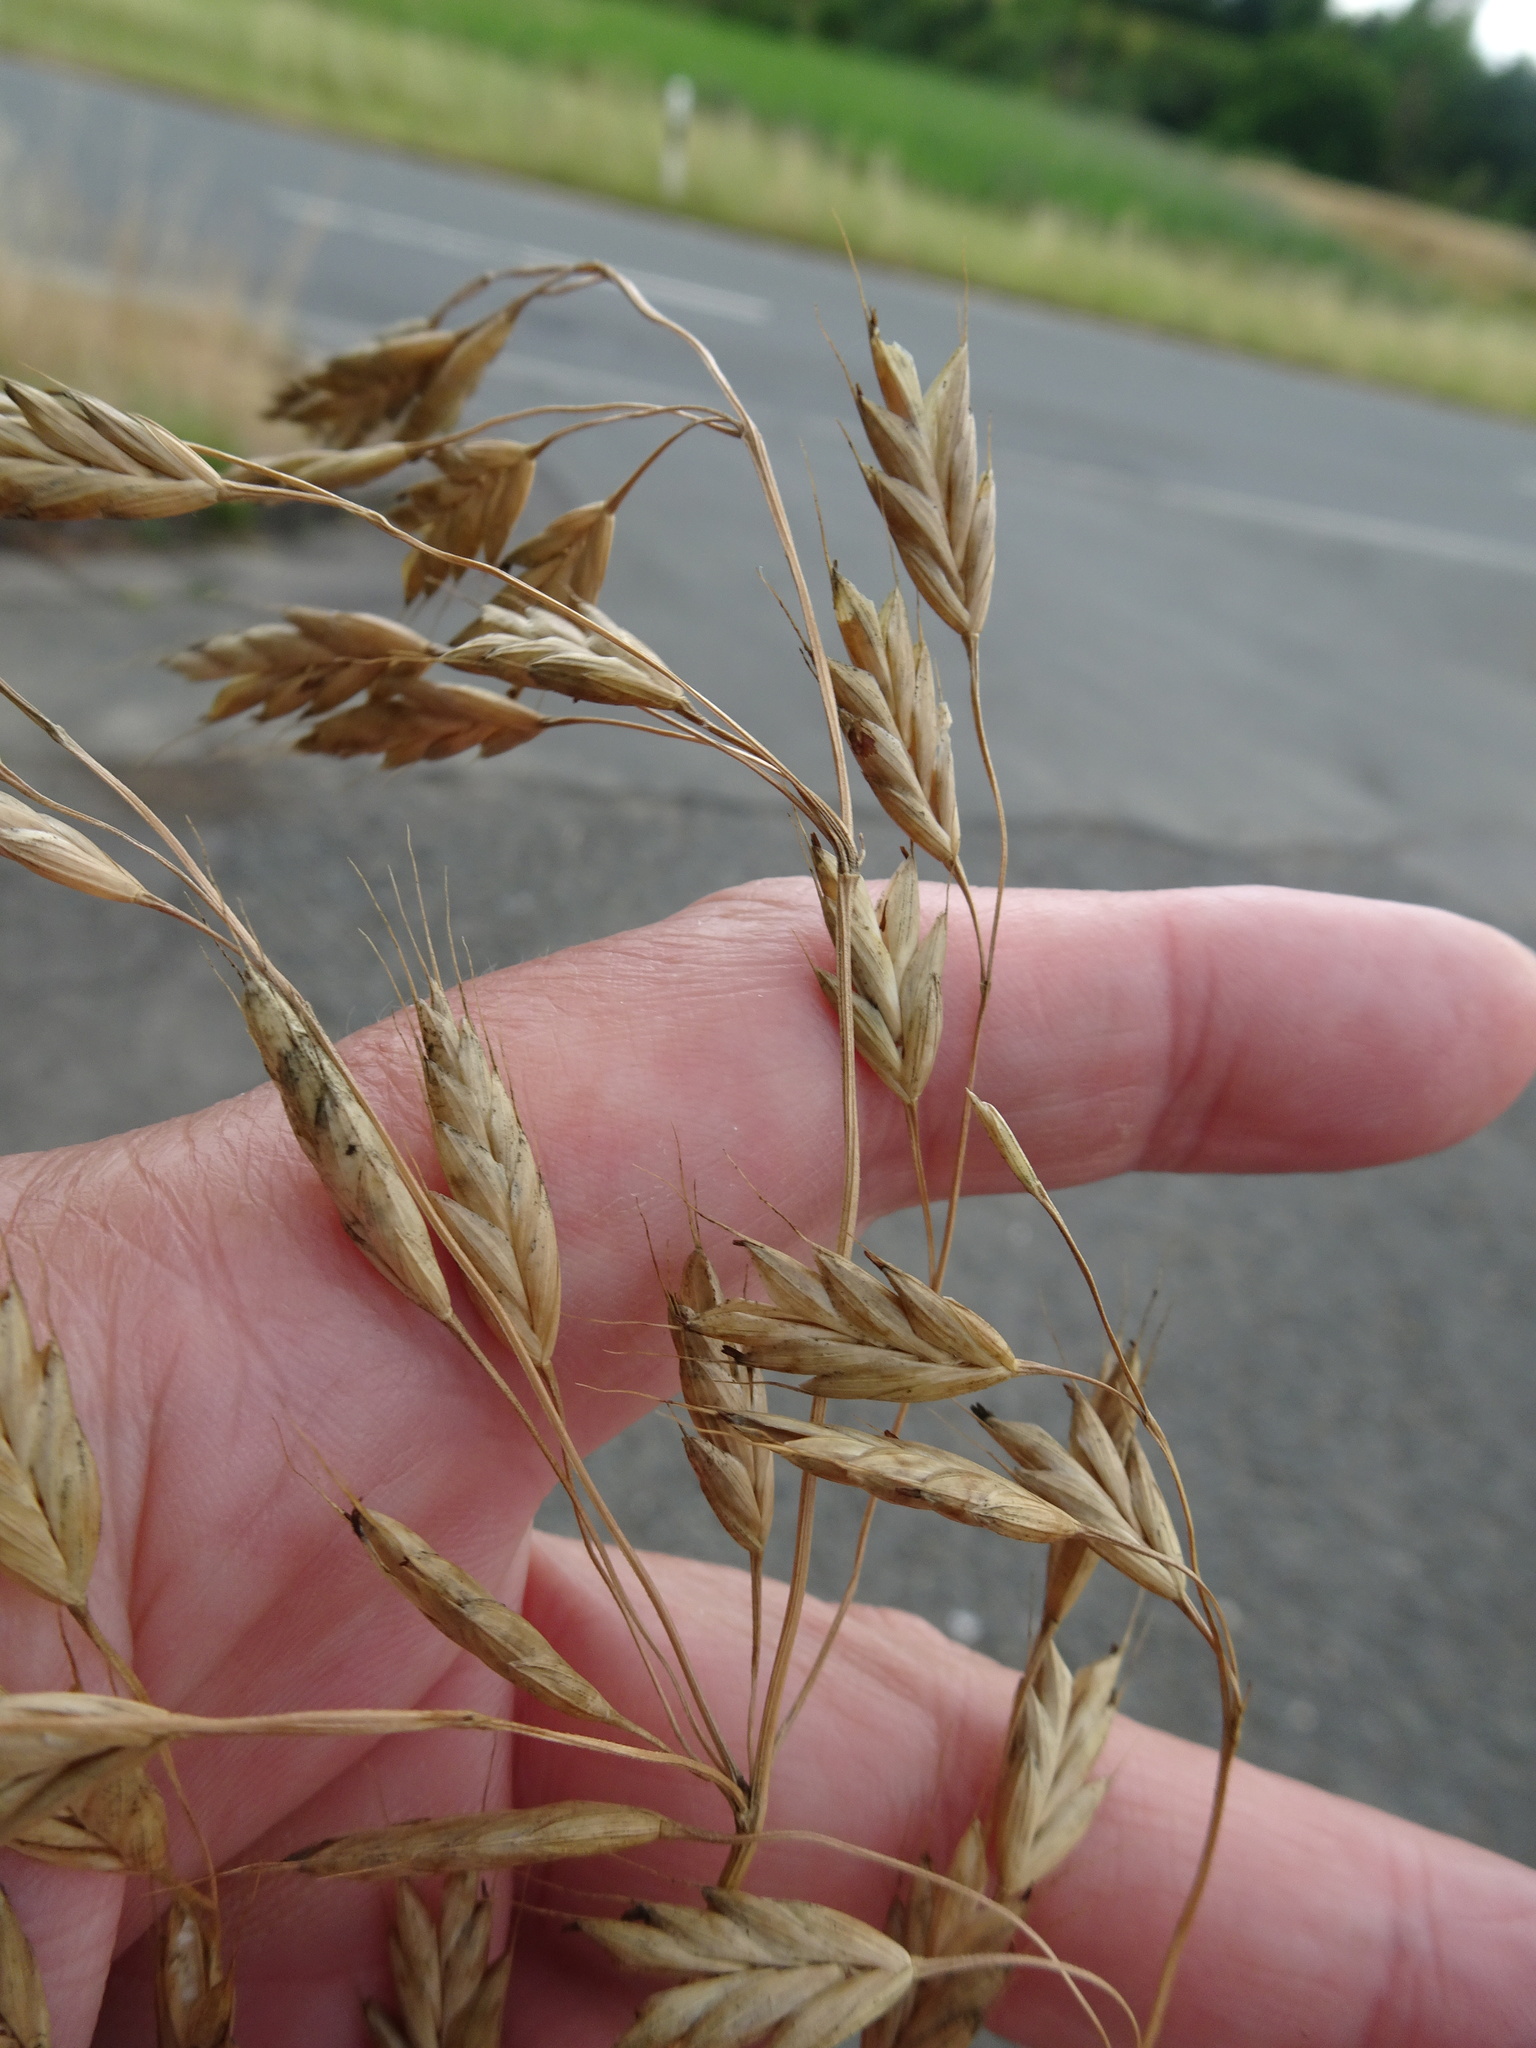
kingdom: Plantae
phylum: Tracheophyta
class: Liliopsida
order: Poales
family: Poaceae
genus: Bromus
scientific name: Bromus secalinus
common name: Rye brome
